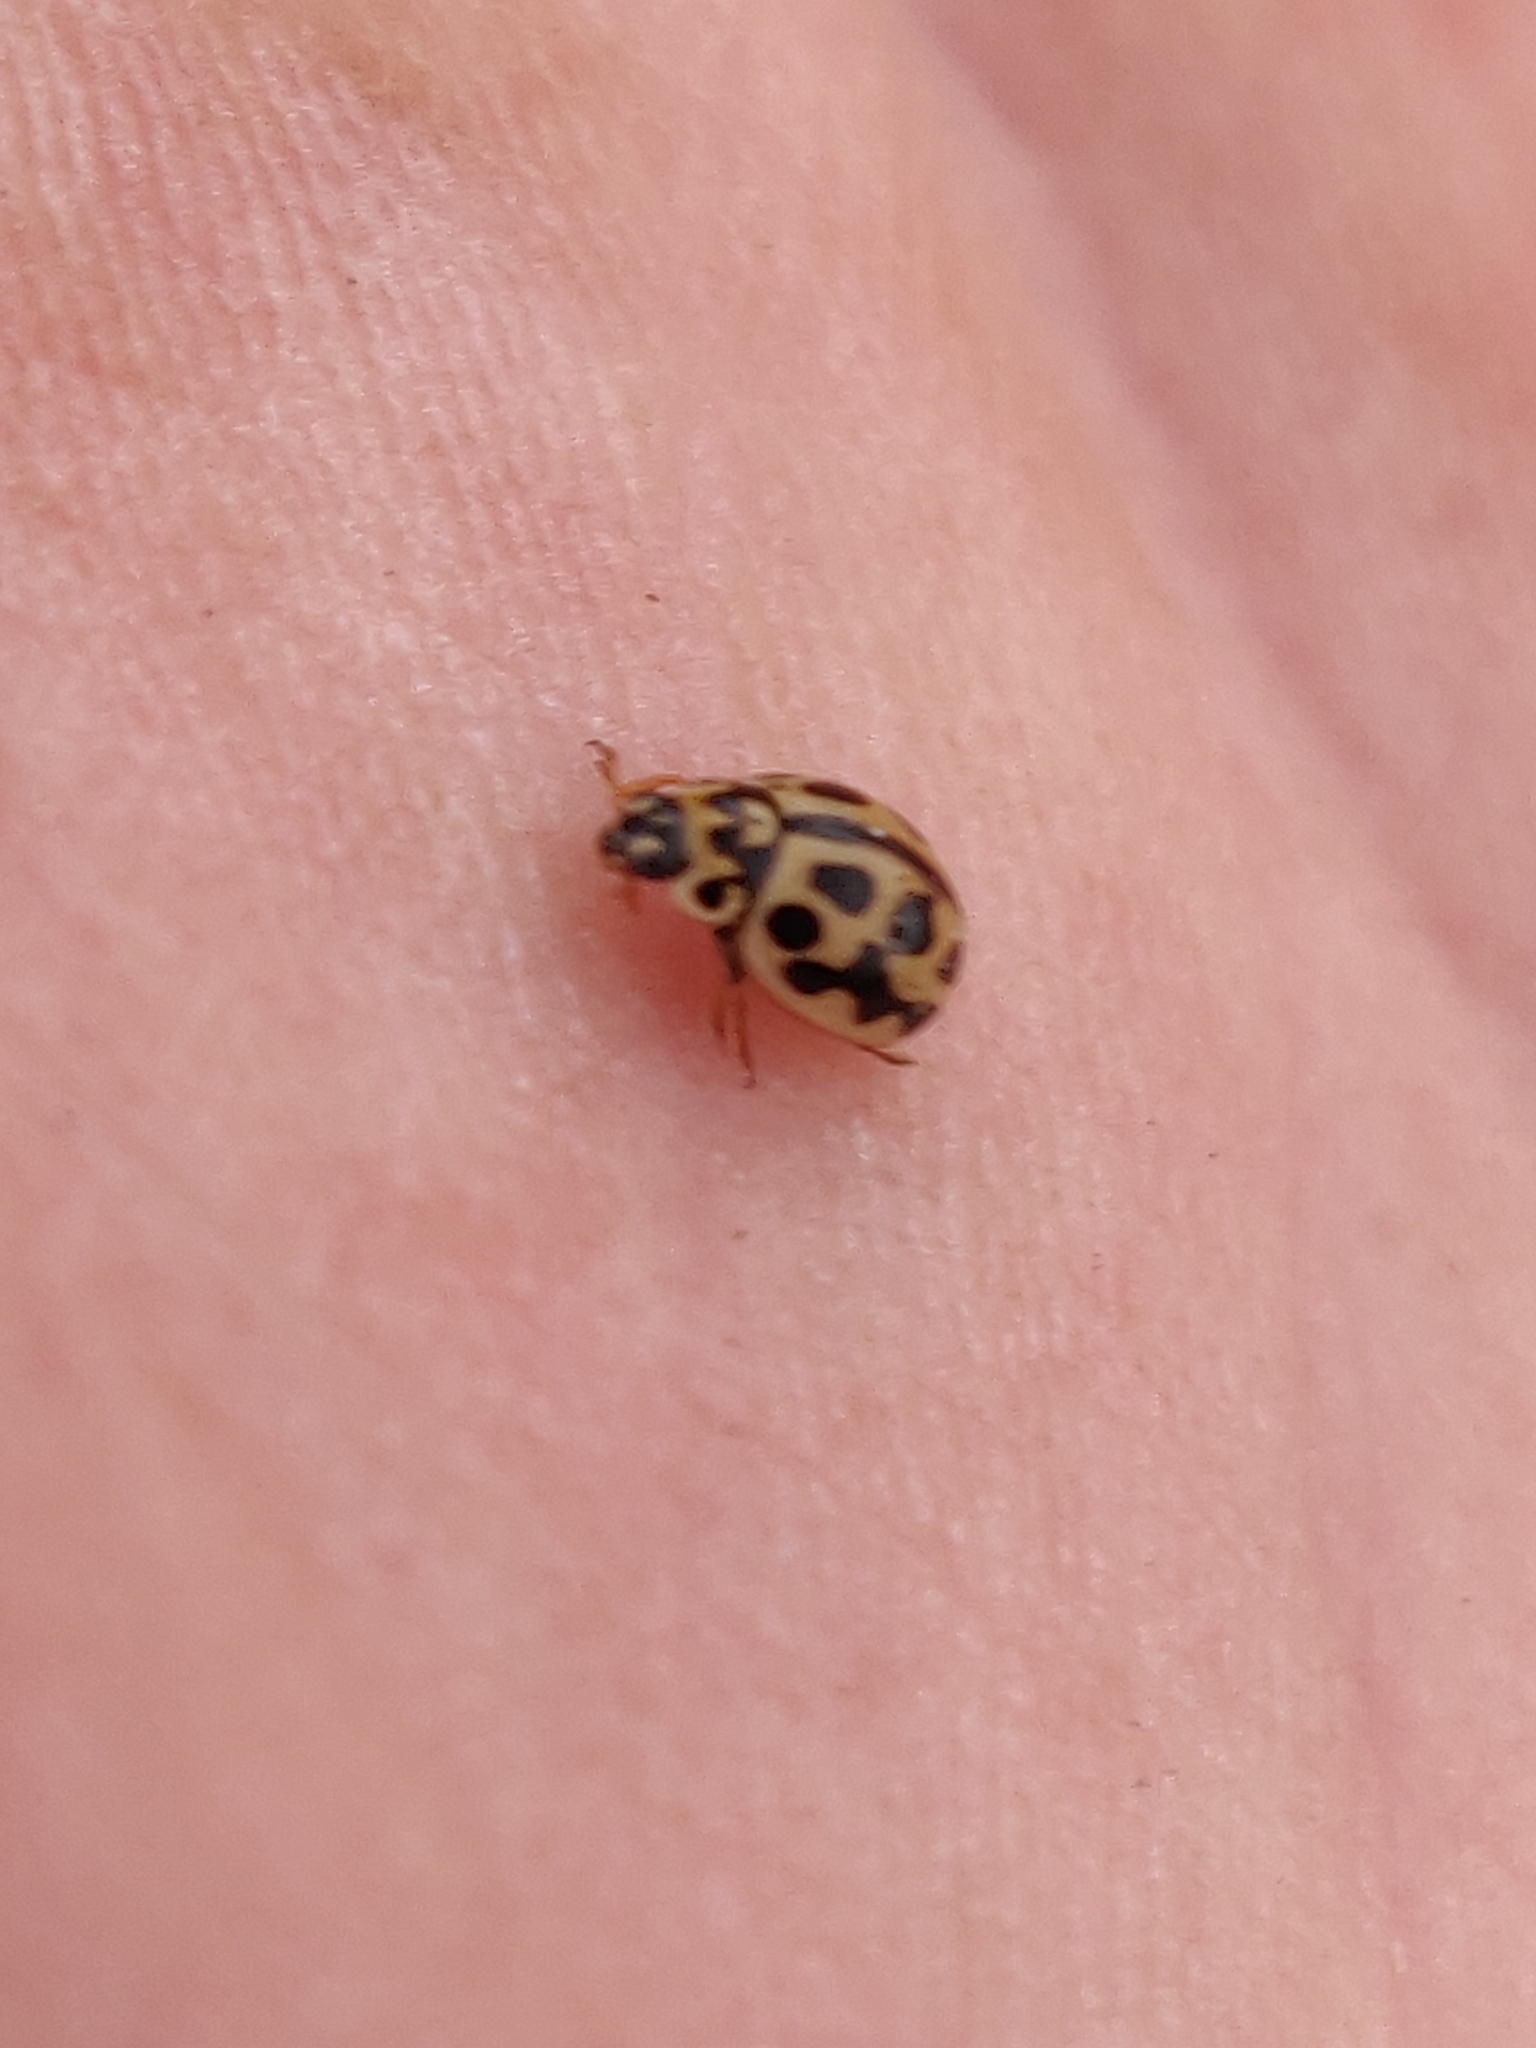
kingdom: Animalia
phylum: Arthropoda
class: Insecta
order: Coleoptera
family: Coccinellidae
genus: Tytthaspis
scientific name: Tytthaspis sedecimpunctata
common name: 16-spot ladybird
